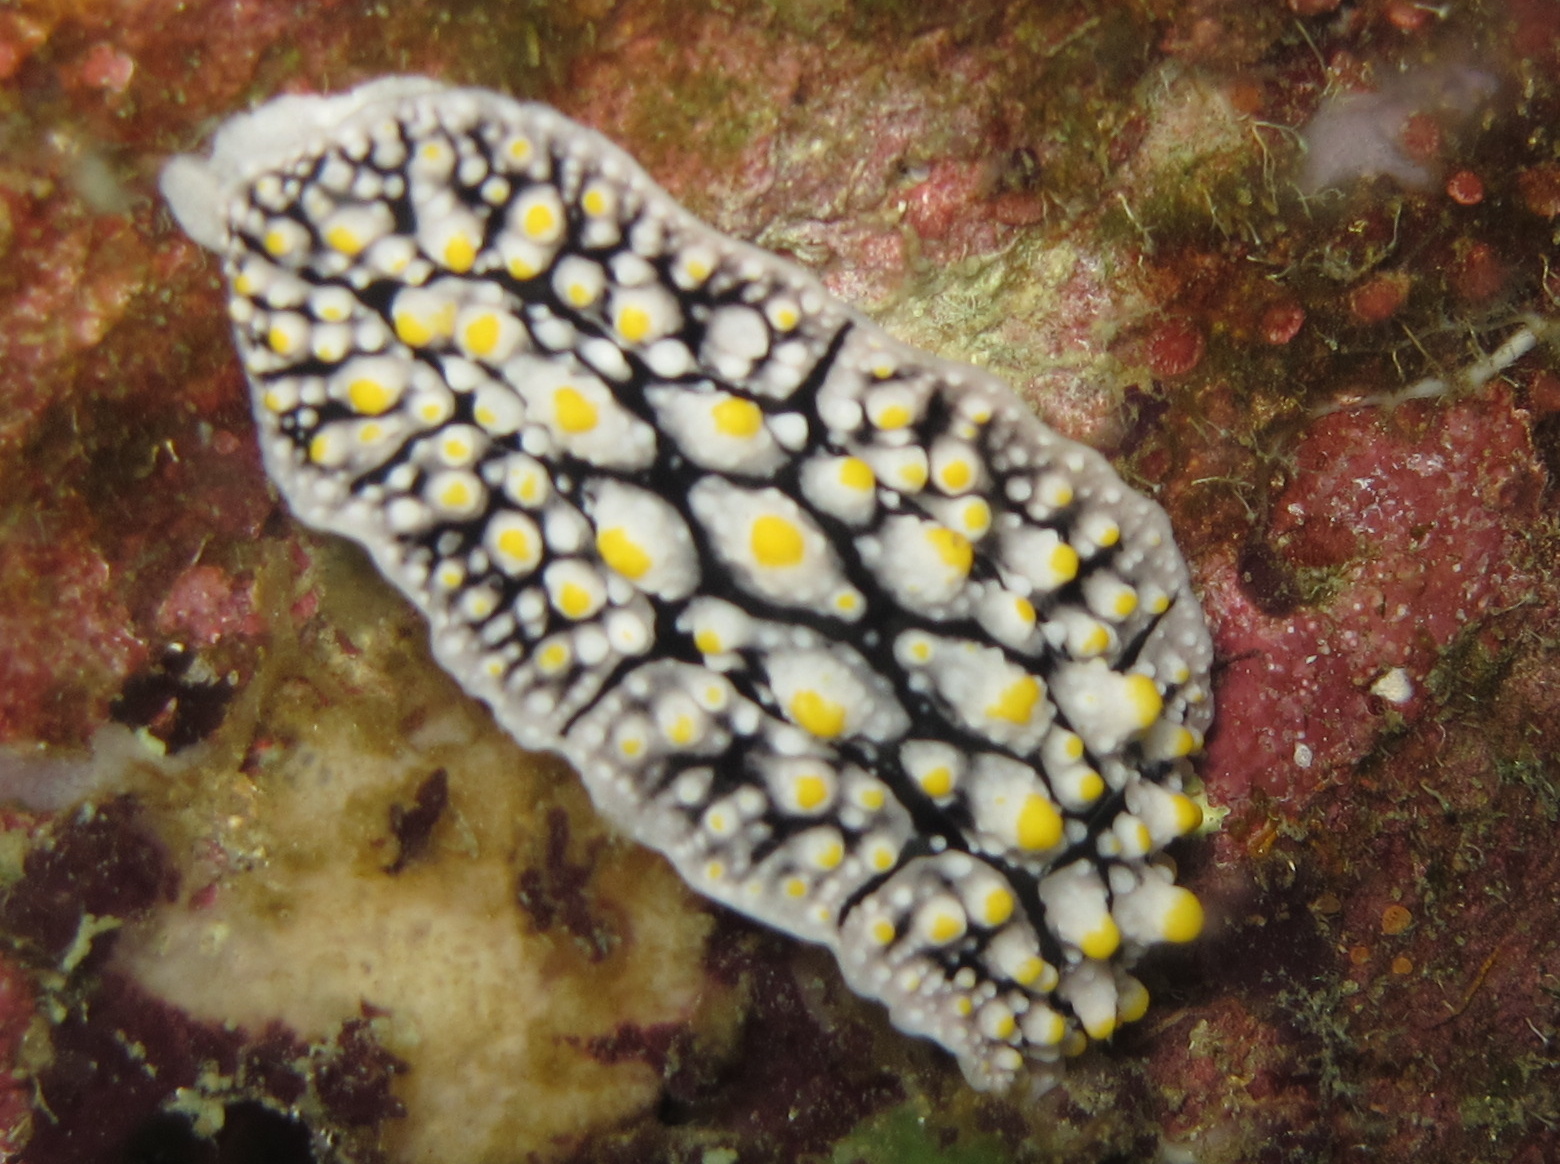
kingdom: Animalia
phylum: Mollusca
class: Gastropoda
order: Nudibranchia
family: Phyllidiidae
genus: Phyllidia
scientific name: Phyllidia elegans
